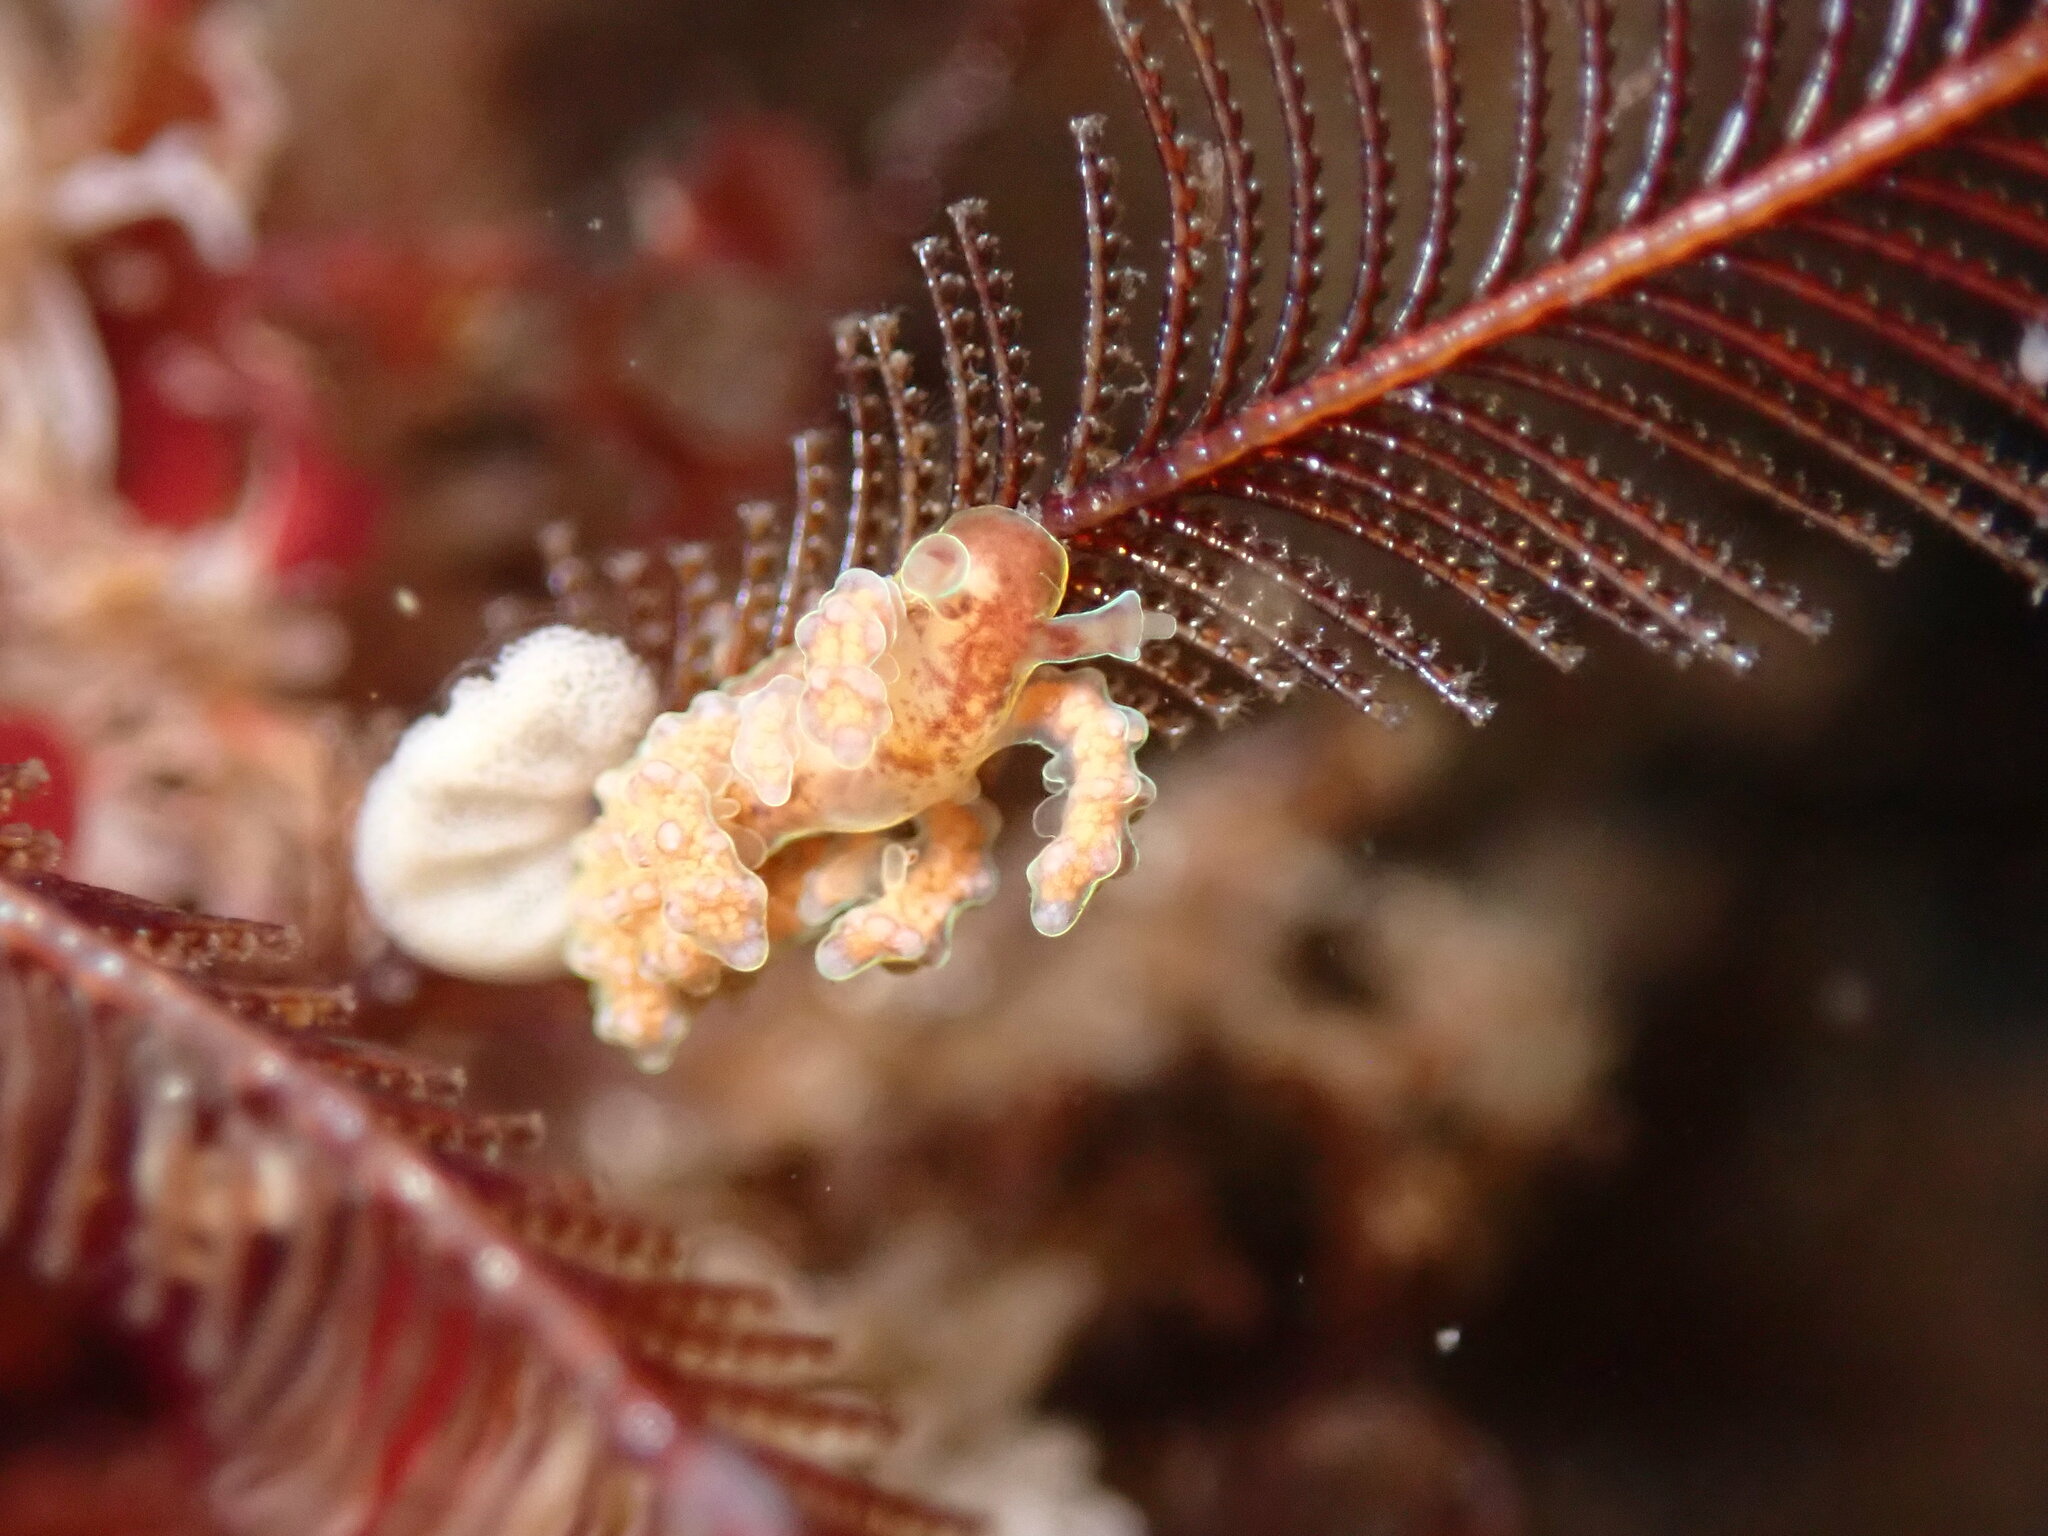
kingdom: Animalia
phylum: Mollusca
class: Gastropoda
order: Nudibranchia
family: Dotidae
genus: Doto
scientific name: Doto columbiana
